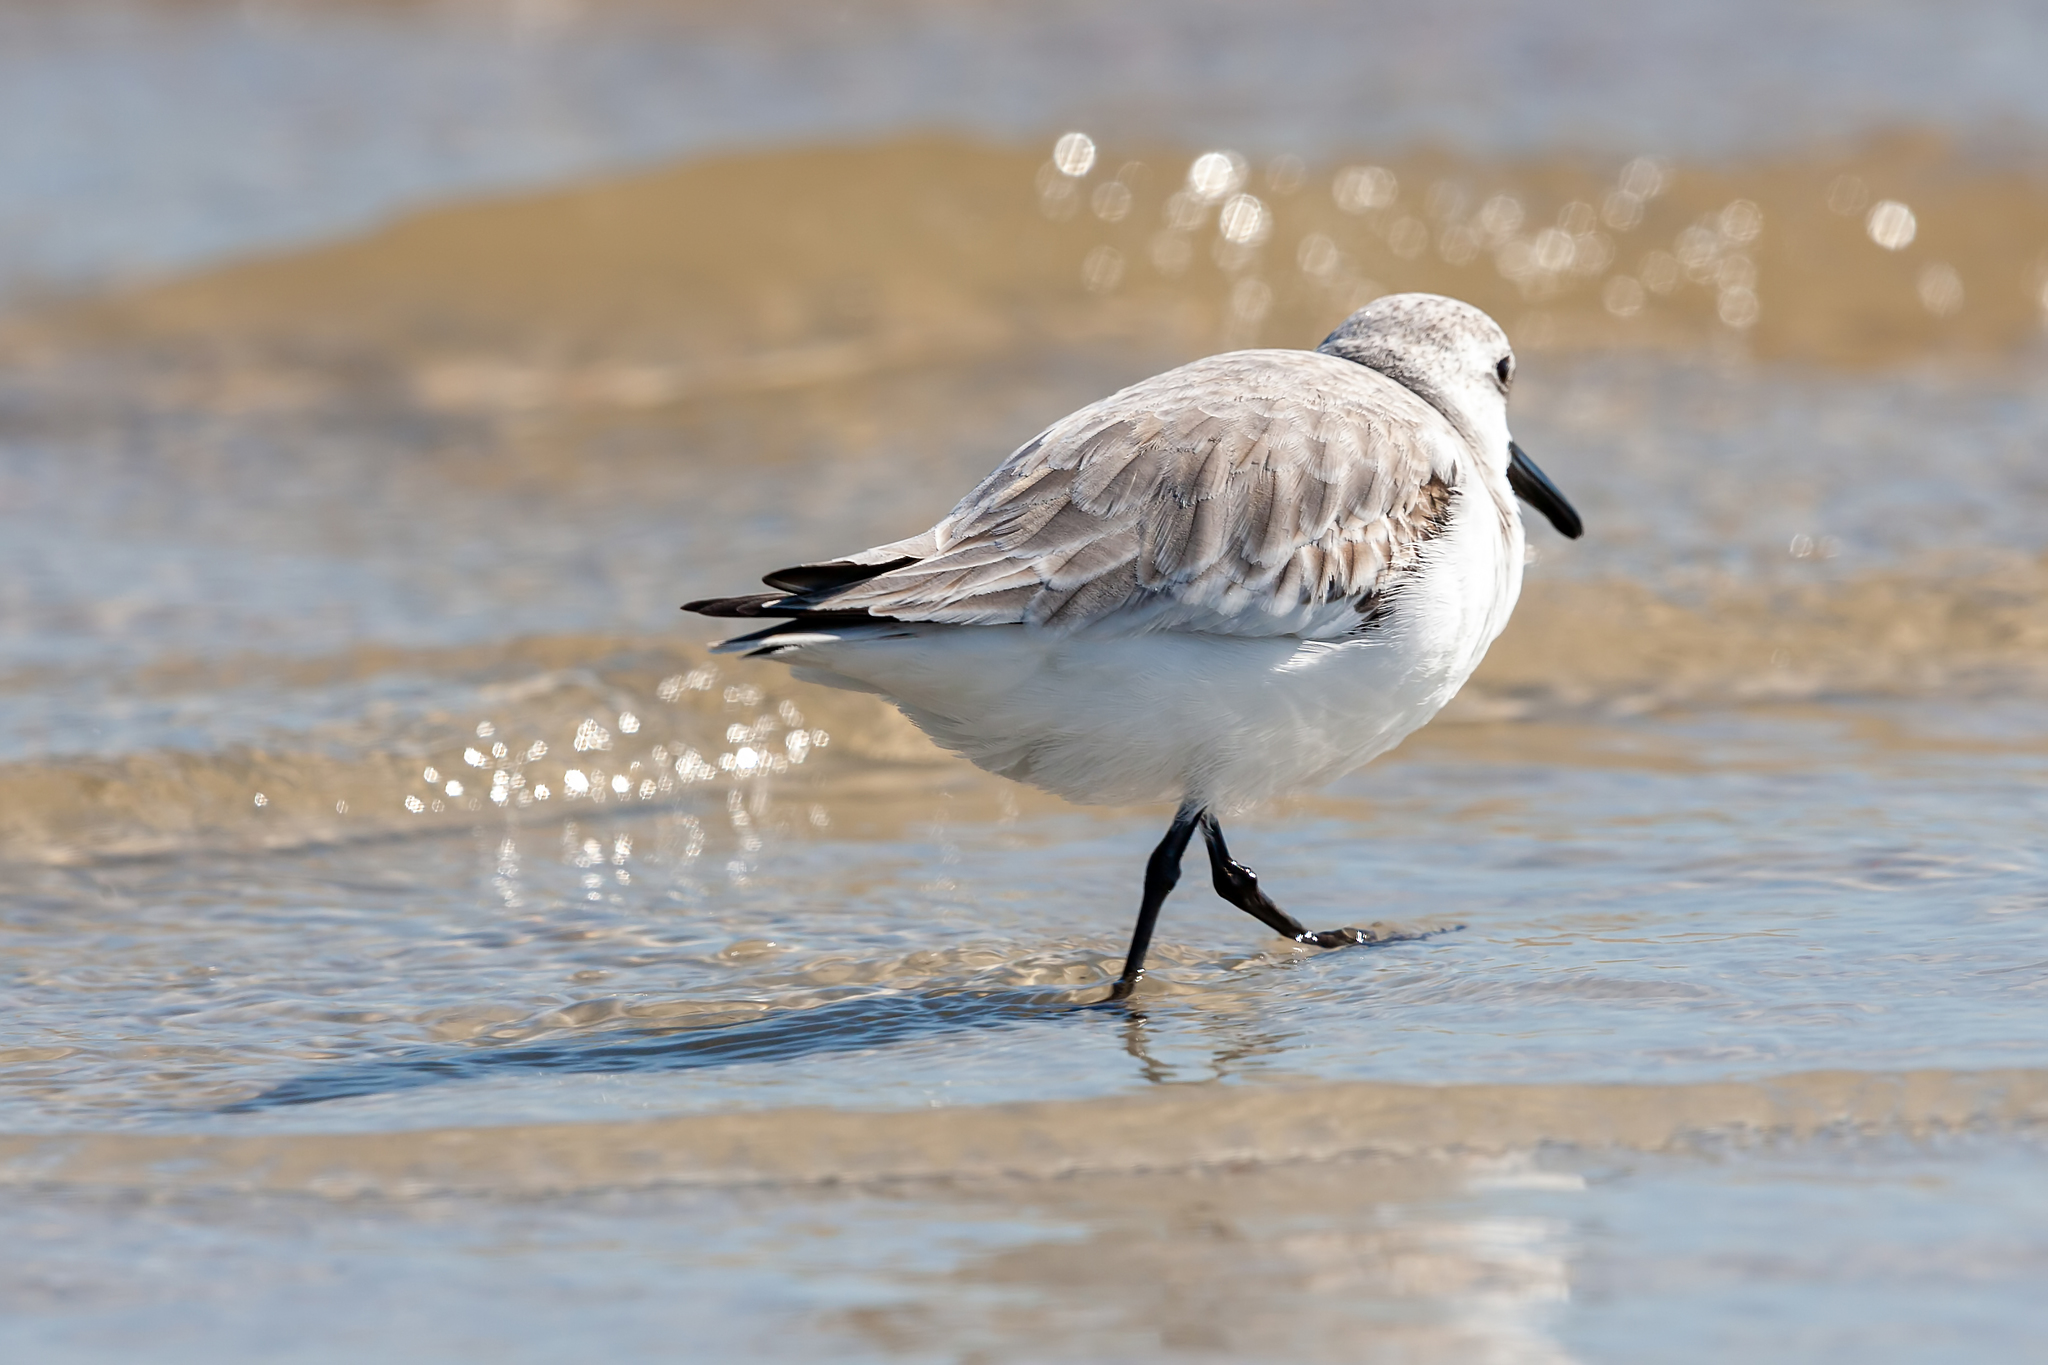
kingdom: Animalia
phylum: Chordata
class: Aves
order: Charadriiformes
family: Scolopacidae
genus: Calidris
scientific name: Calidris alba
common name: Sanderling
